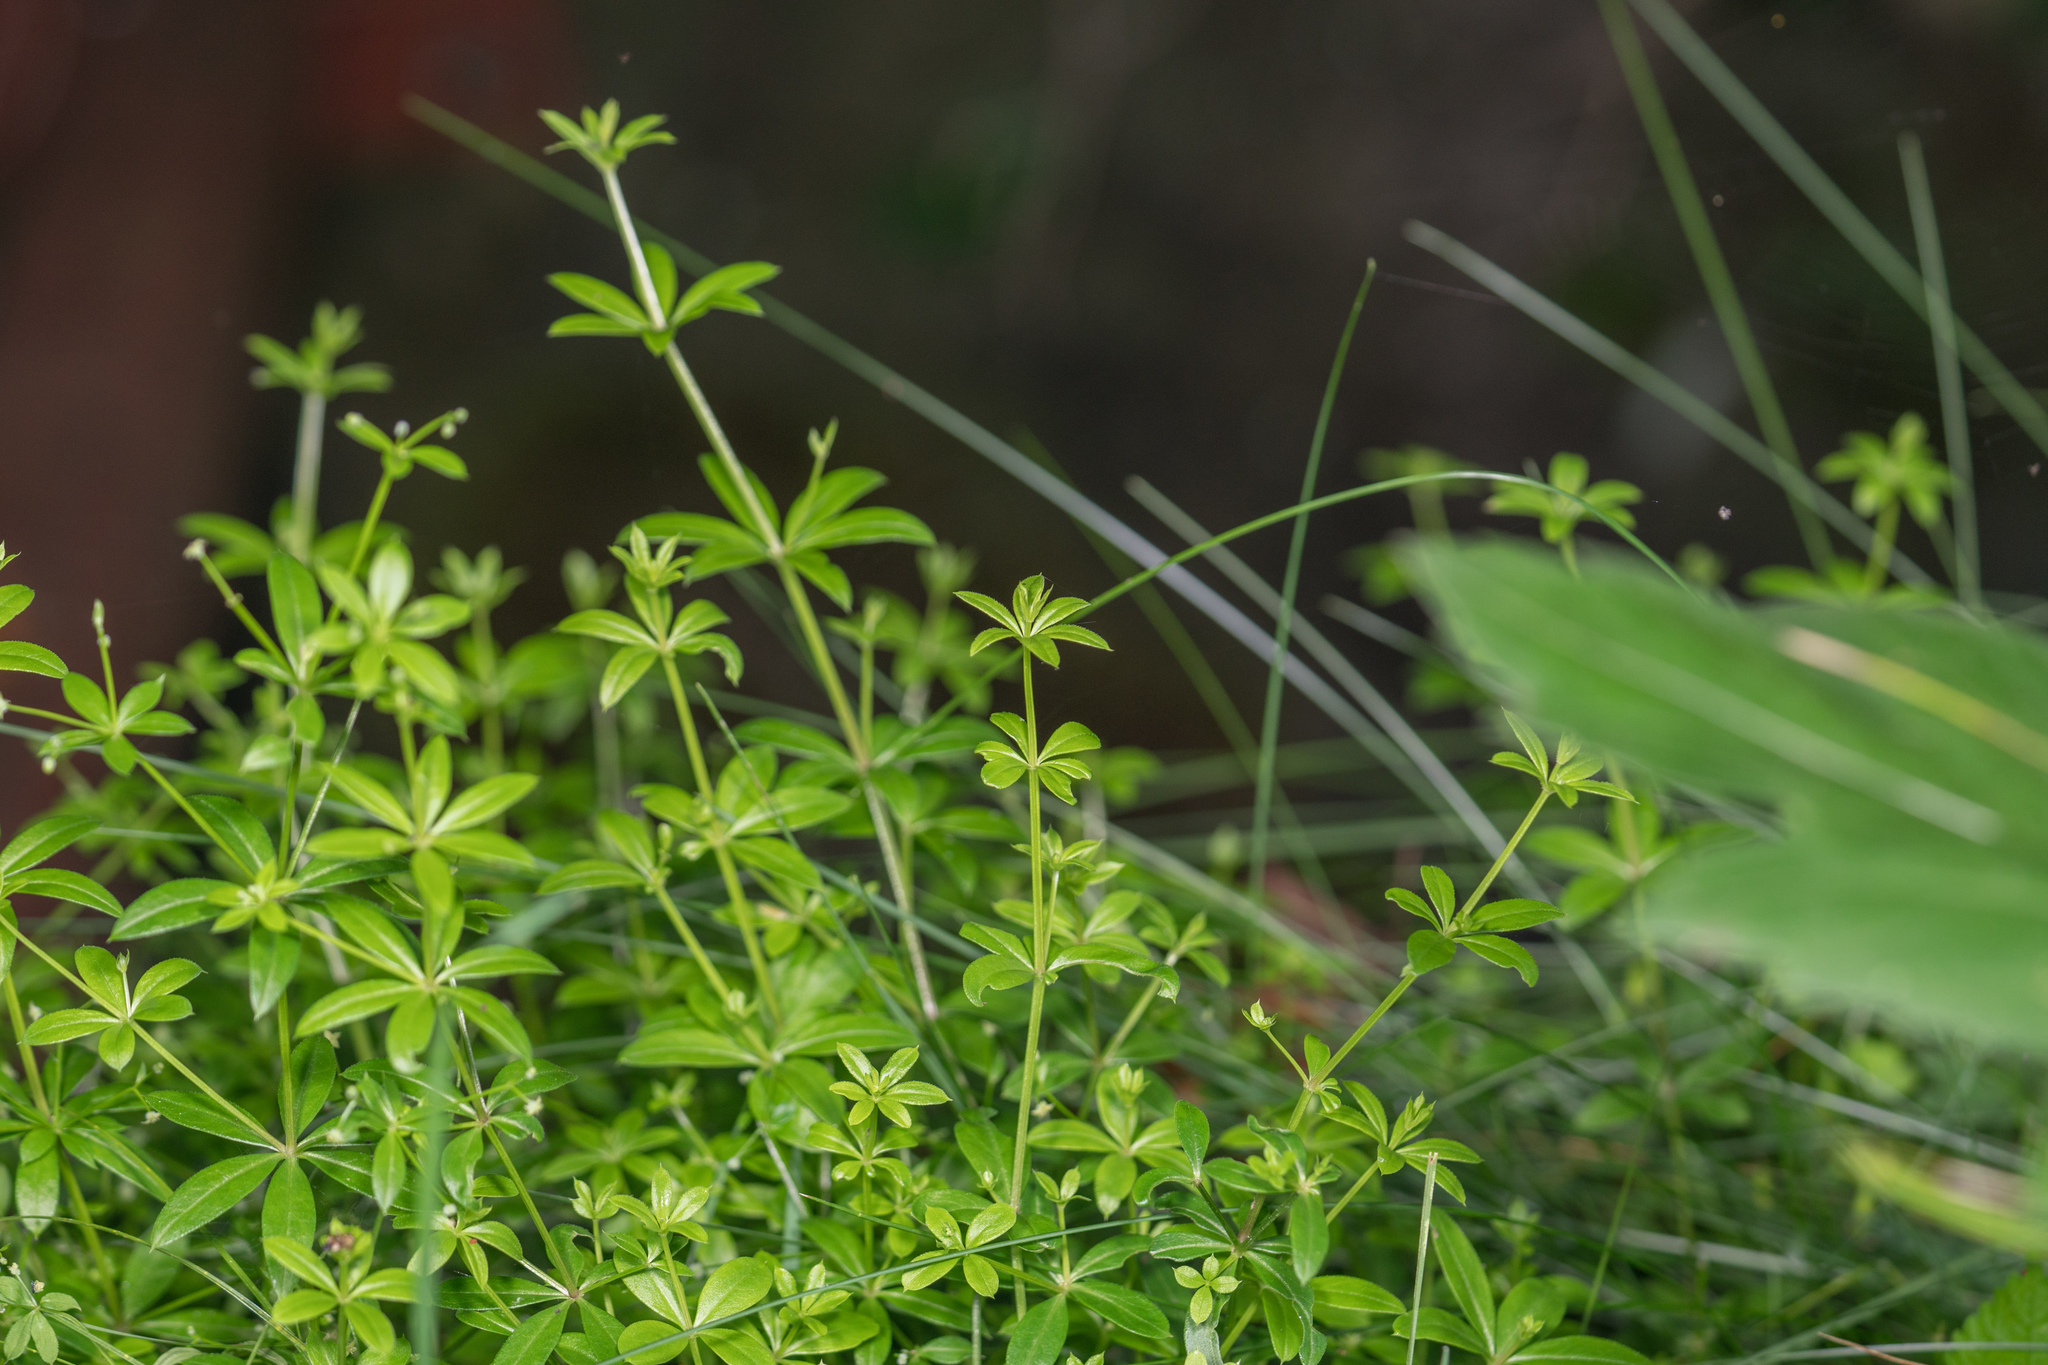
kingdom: Plantae
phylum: Tracheophyta
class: Magnoliopsida
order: Gentianales
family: Rubiaceae
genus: Galium
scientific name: Galium triflorum
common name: Fragrant bedstraw
